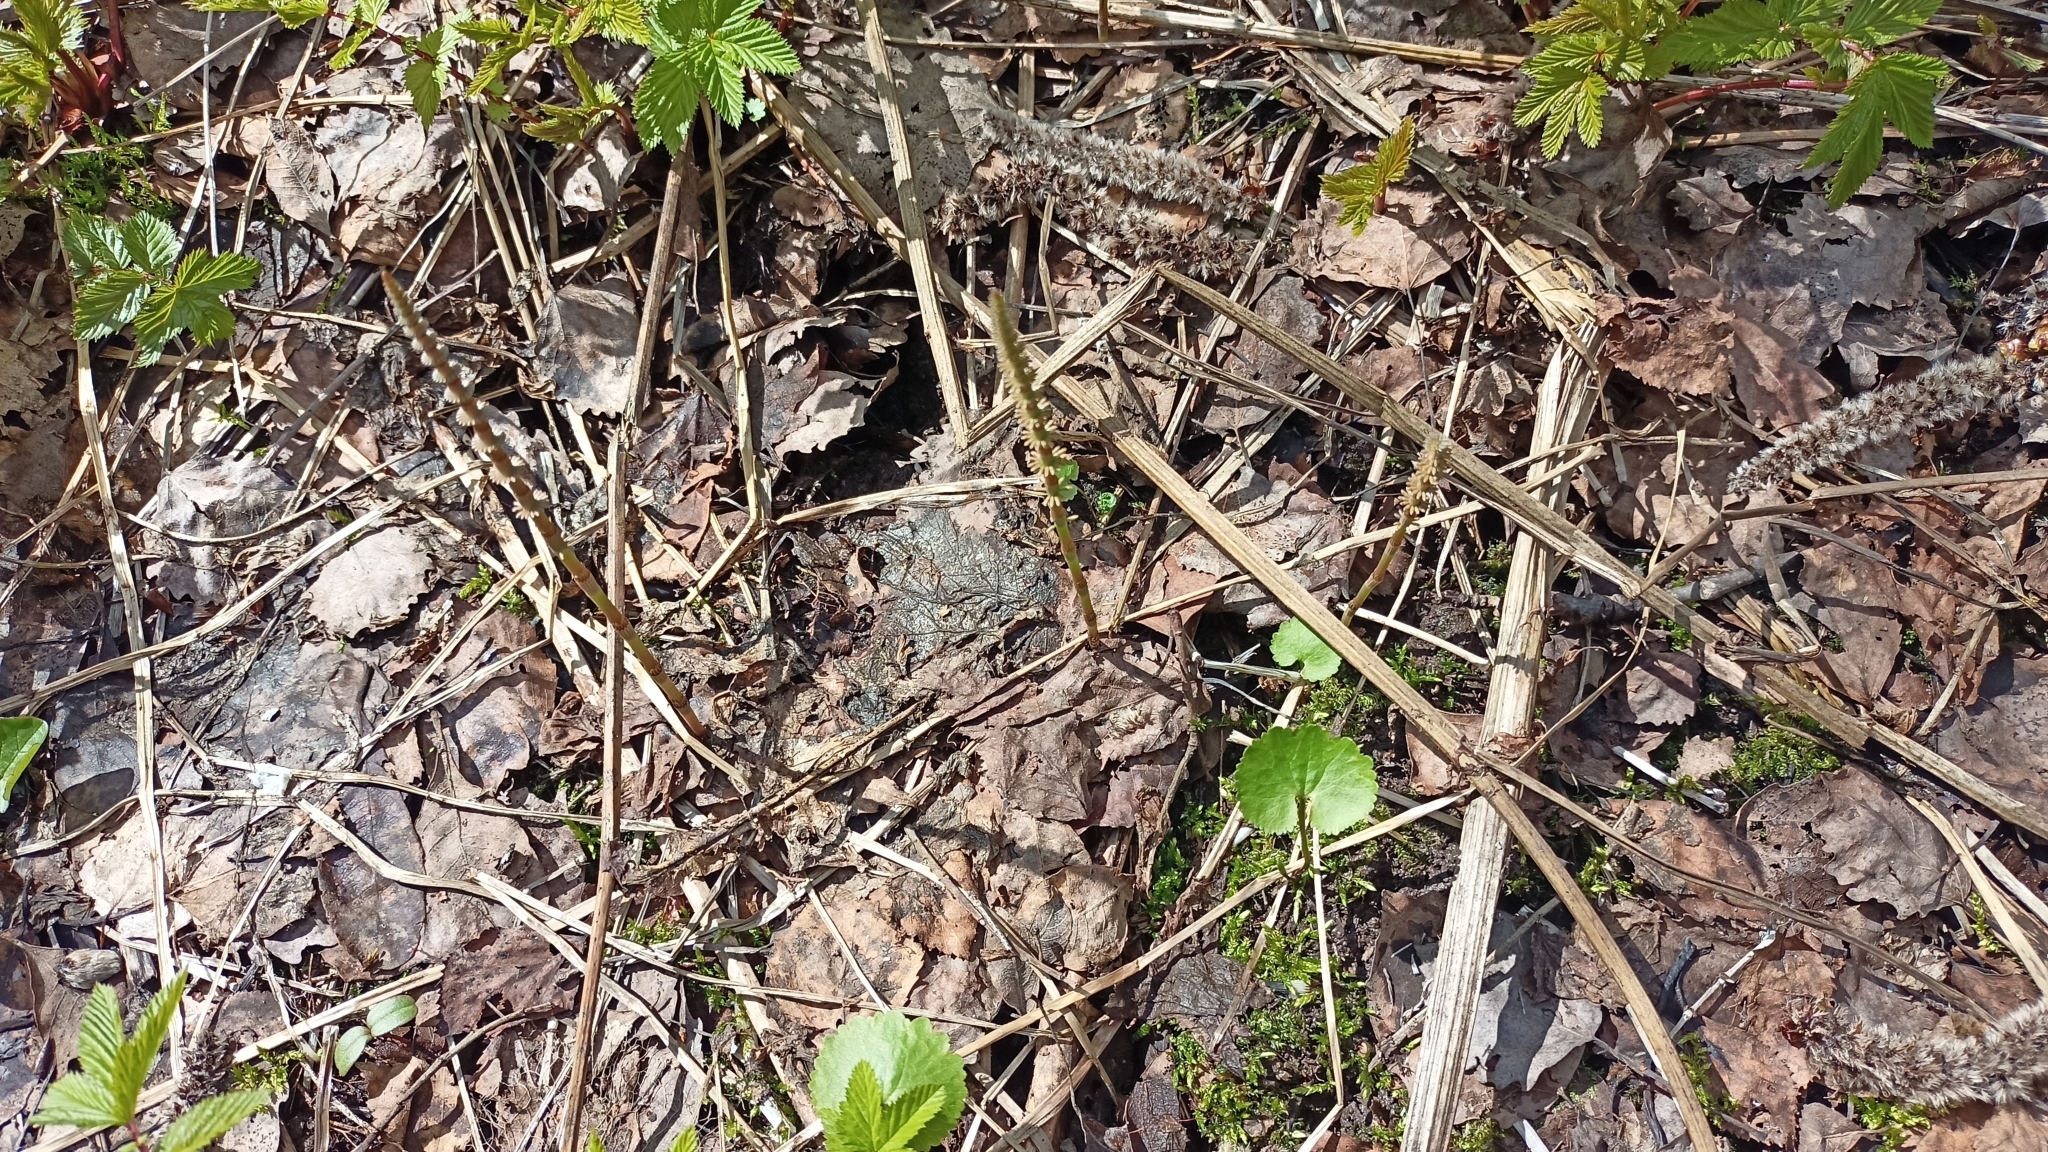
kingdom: Plantae
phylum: Tracheophyta
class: Polypodiopsida
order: Equisetales
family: Equisetaceae
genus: Equisetum
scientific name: Equisetum pratense
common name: Meadow horsetail
